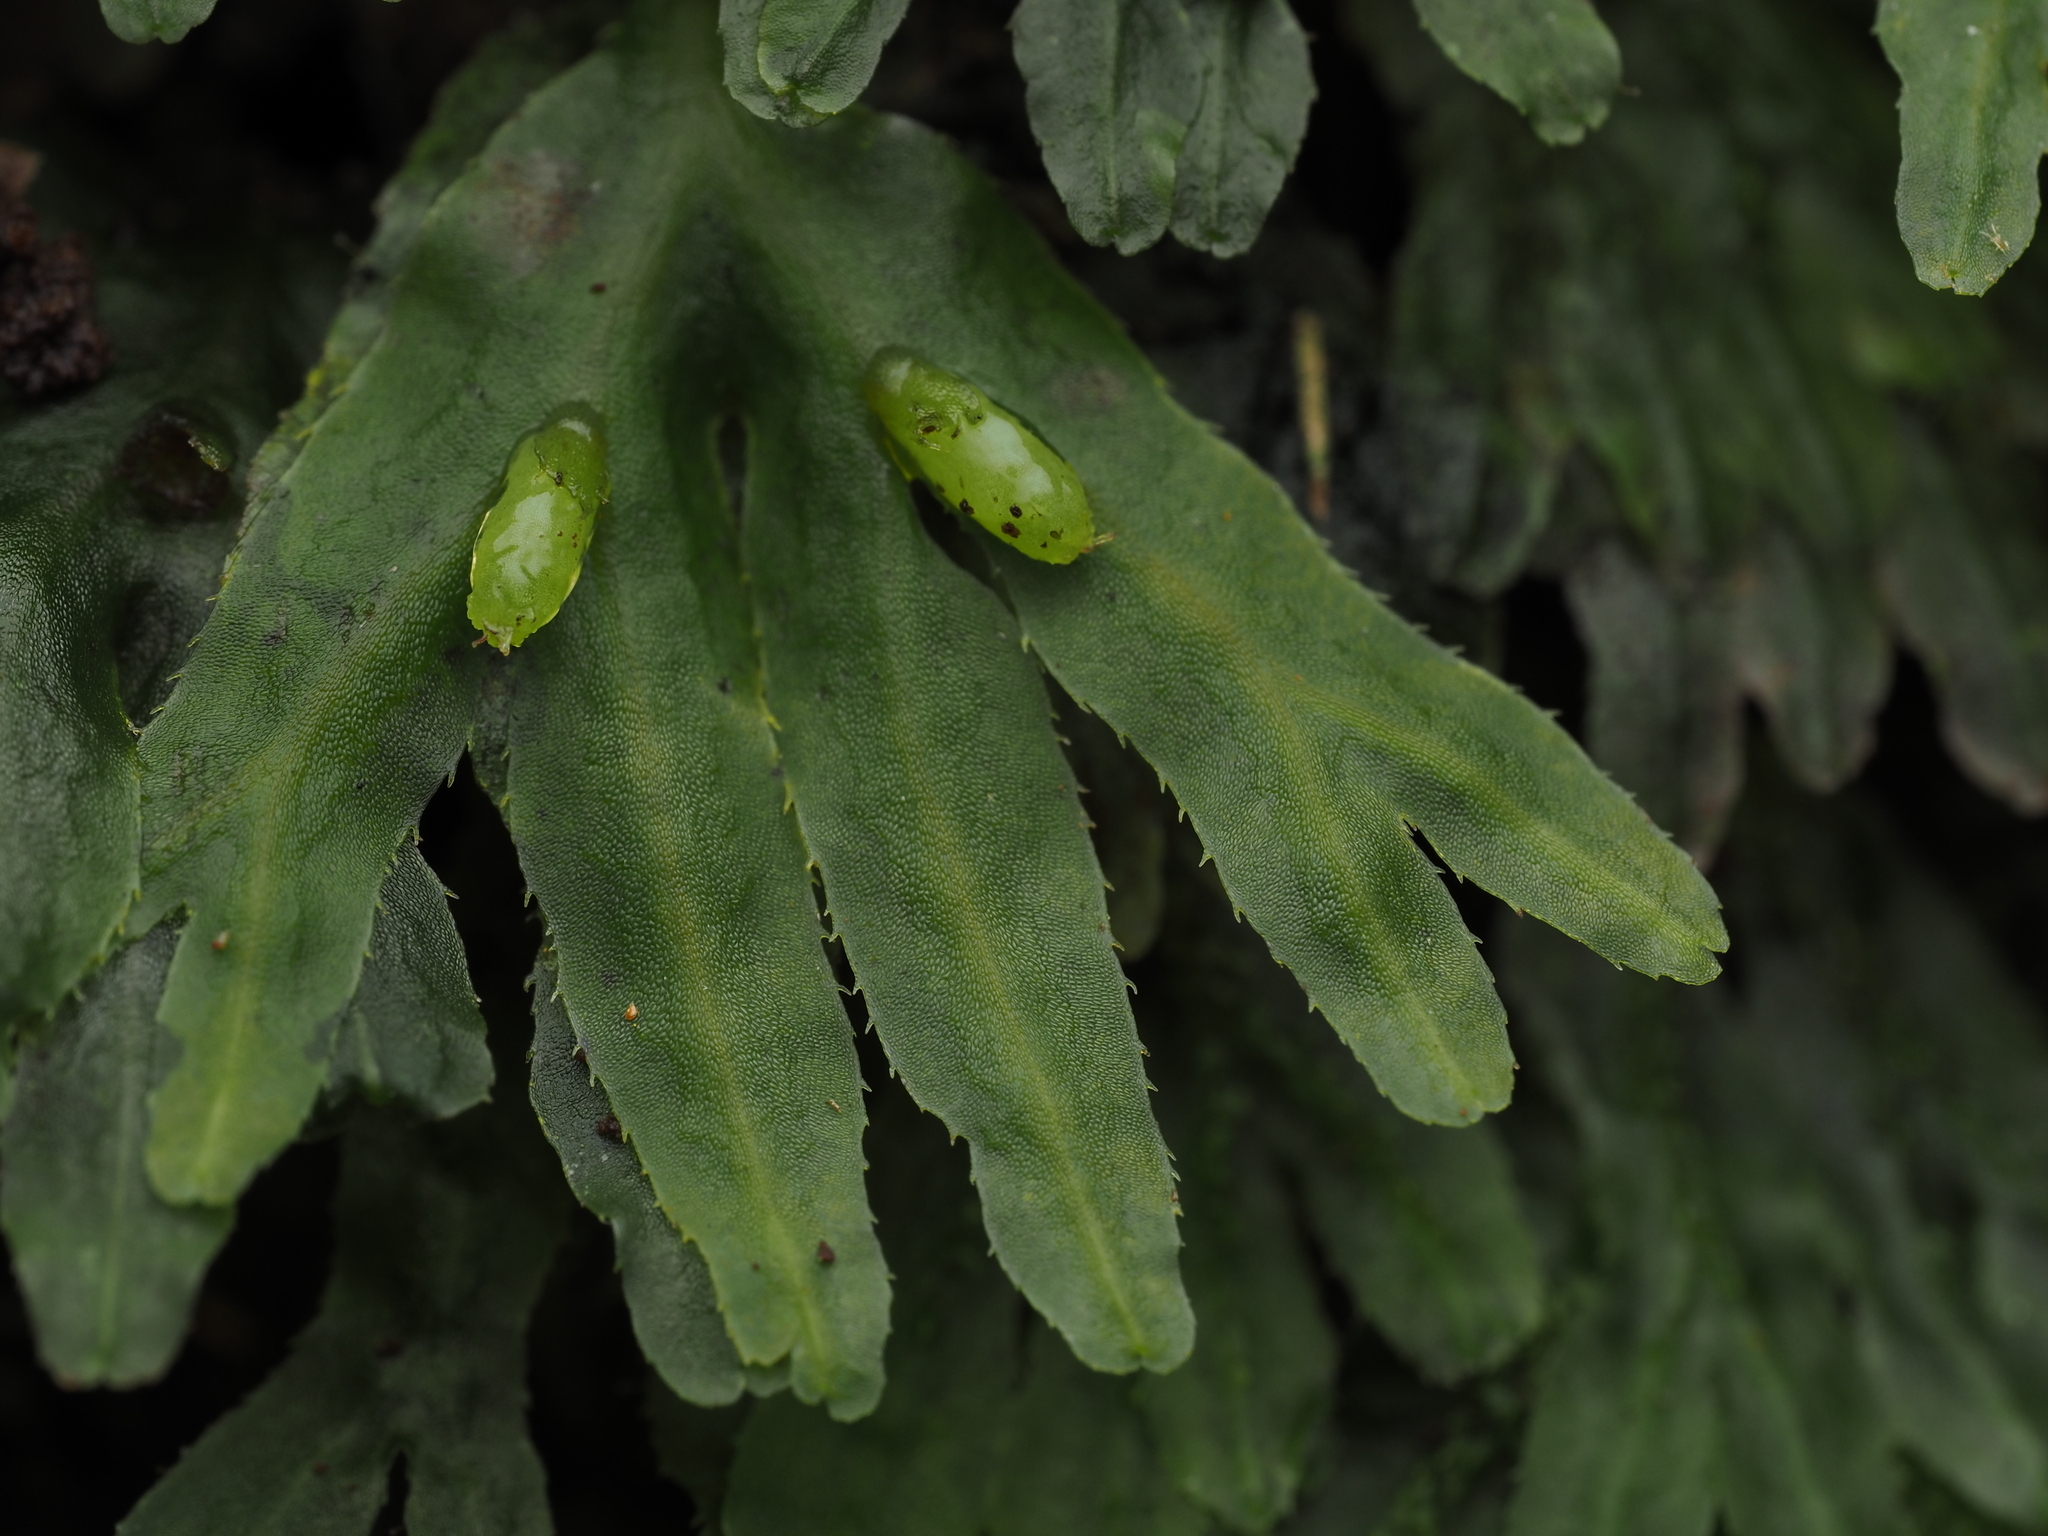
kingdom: Plantae
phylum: Marchantiophyta
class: Jungermanniopsida
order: Pallaviciniales
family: Pallaviciniaceae
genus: Symphyogyna
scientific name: Symphyogyna hymenophyllum
